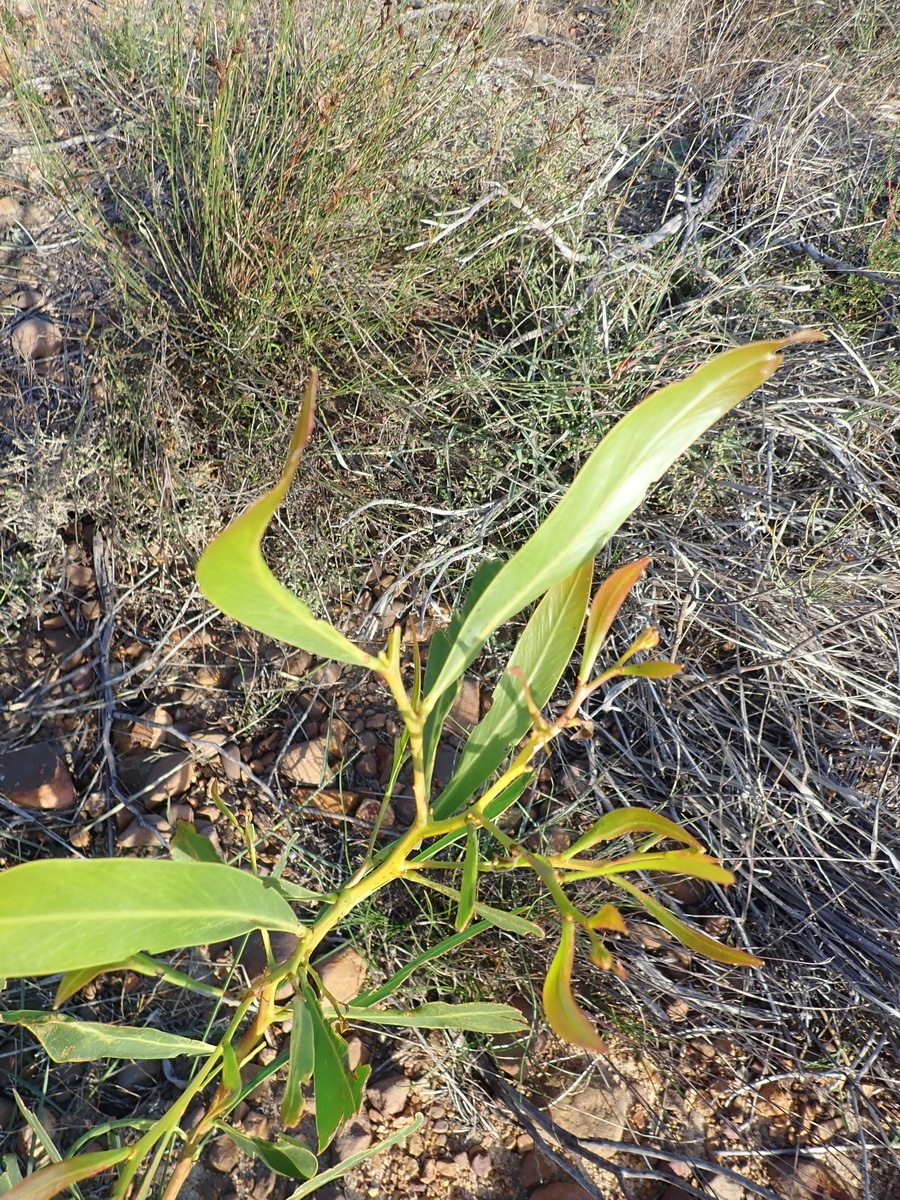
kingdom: Plantae
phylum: Tracheophyta
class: Magnoliopsida
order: Fabales
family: Fabaceae
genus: Acacia
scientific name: Acacia saligna
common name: Orange wattle
